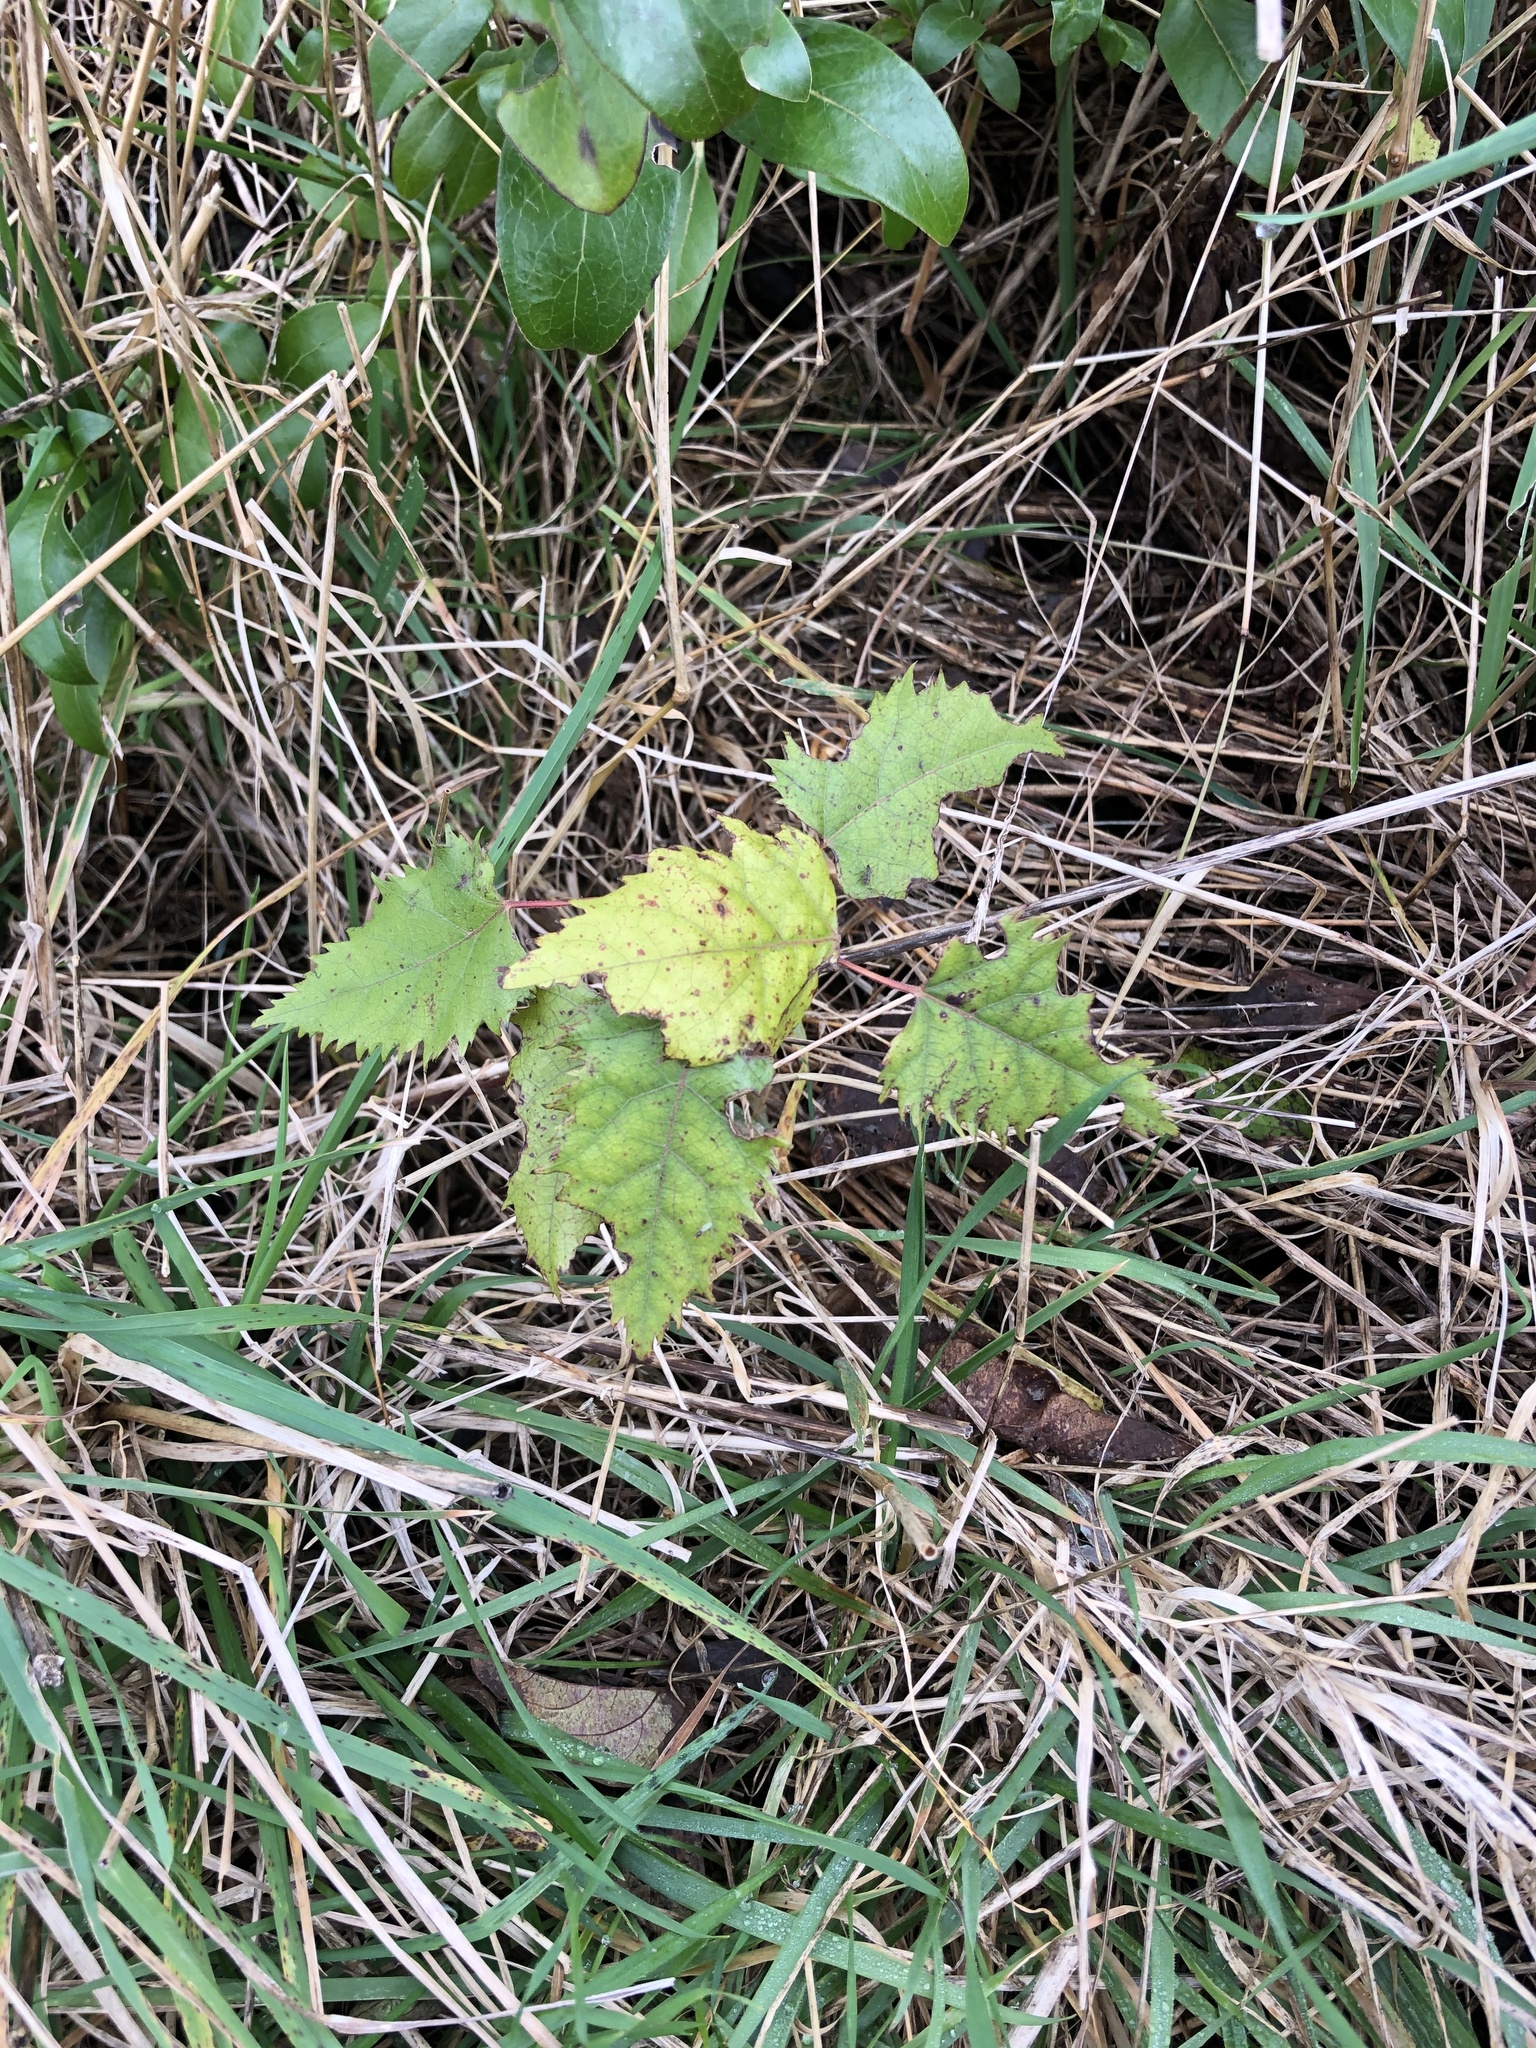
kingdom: Plantae
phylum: Tracheophyta
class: Magnoliopsida
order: Oxalidales
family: Elaeocarpaceae
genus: Aristotelia
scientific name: Aristotelia serrata
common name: New zealand wineberry
